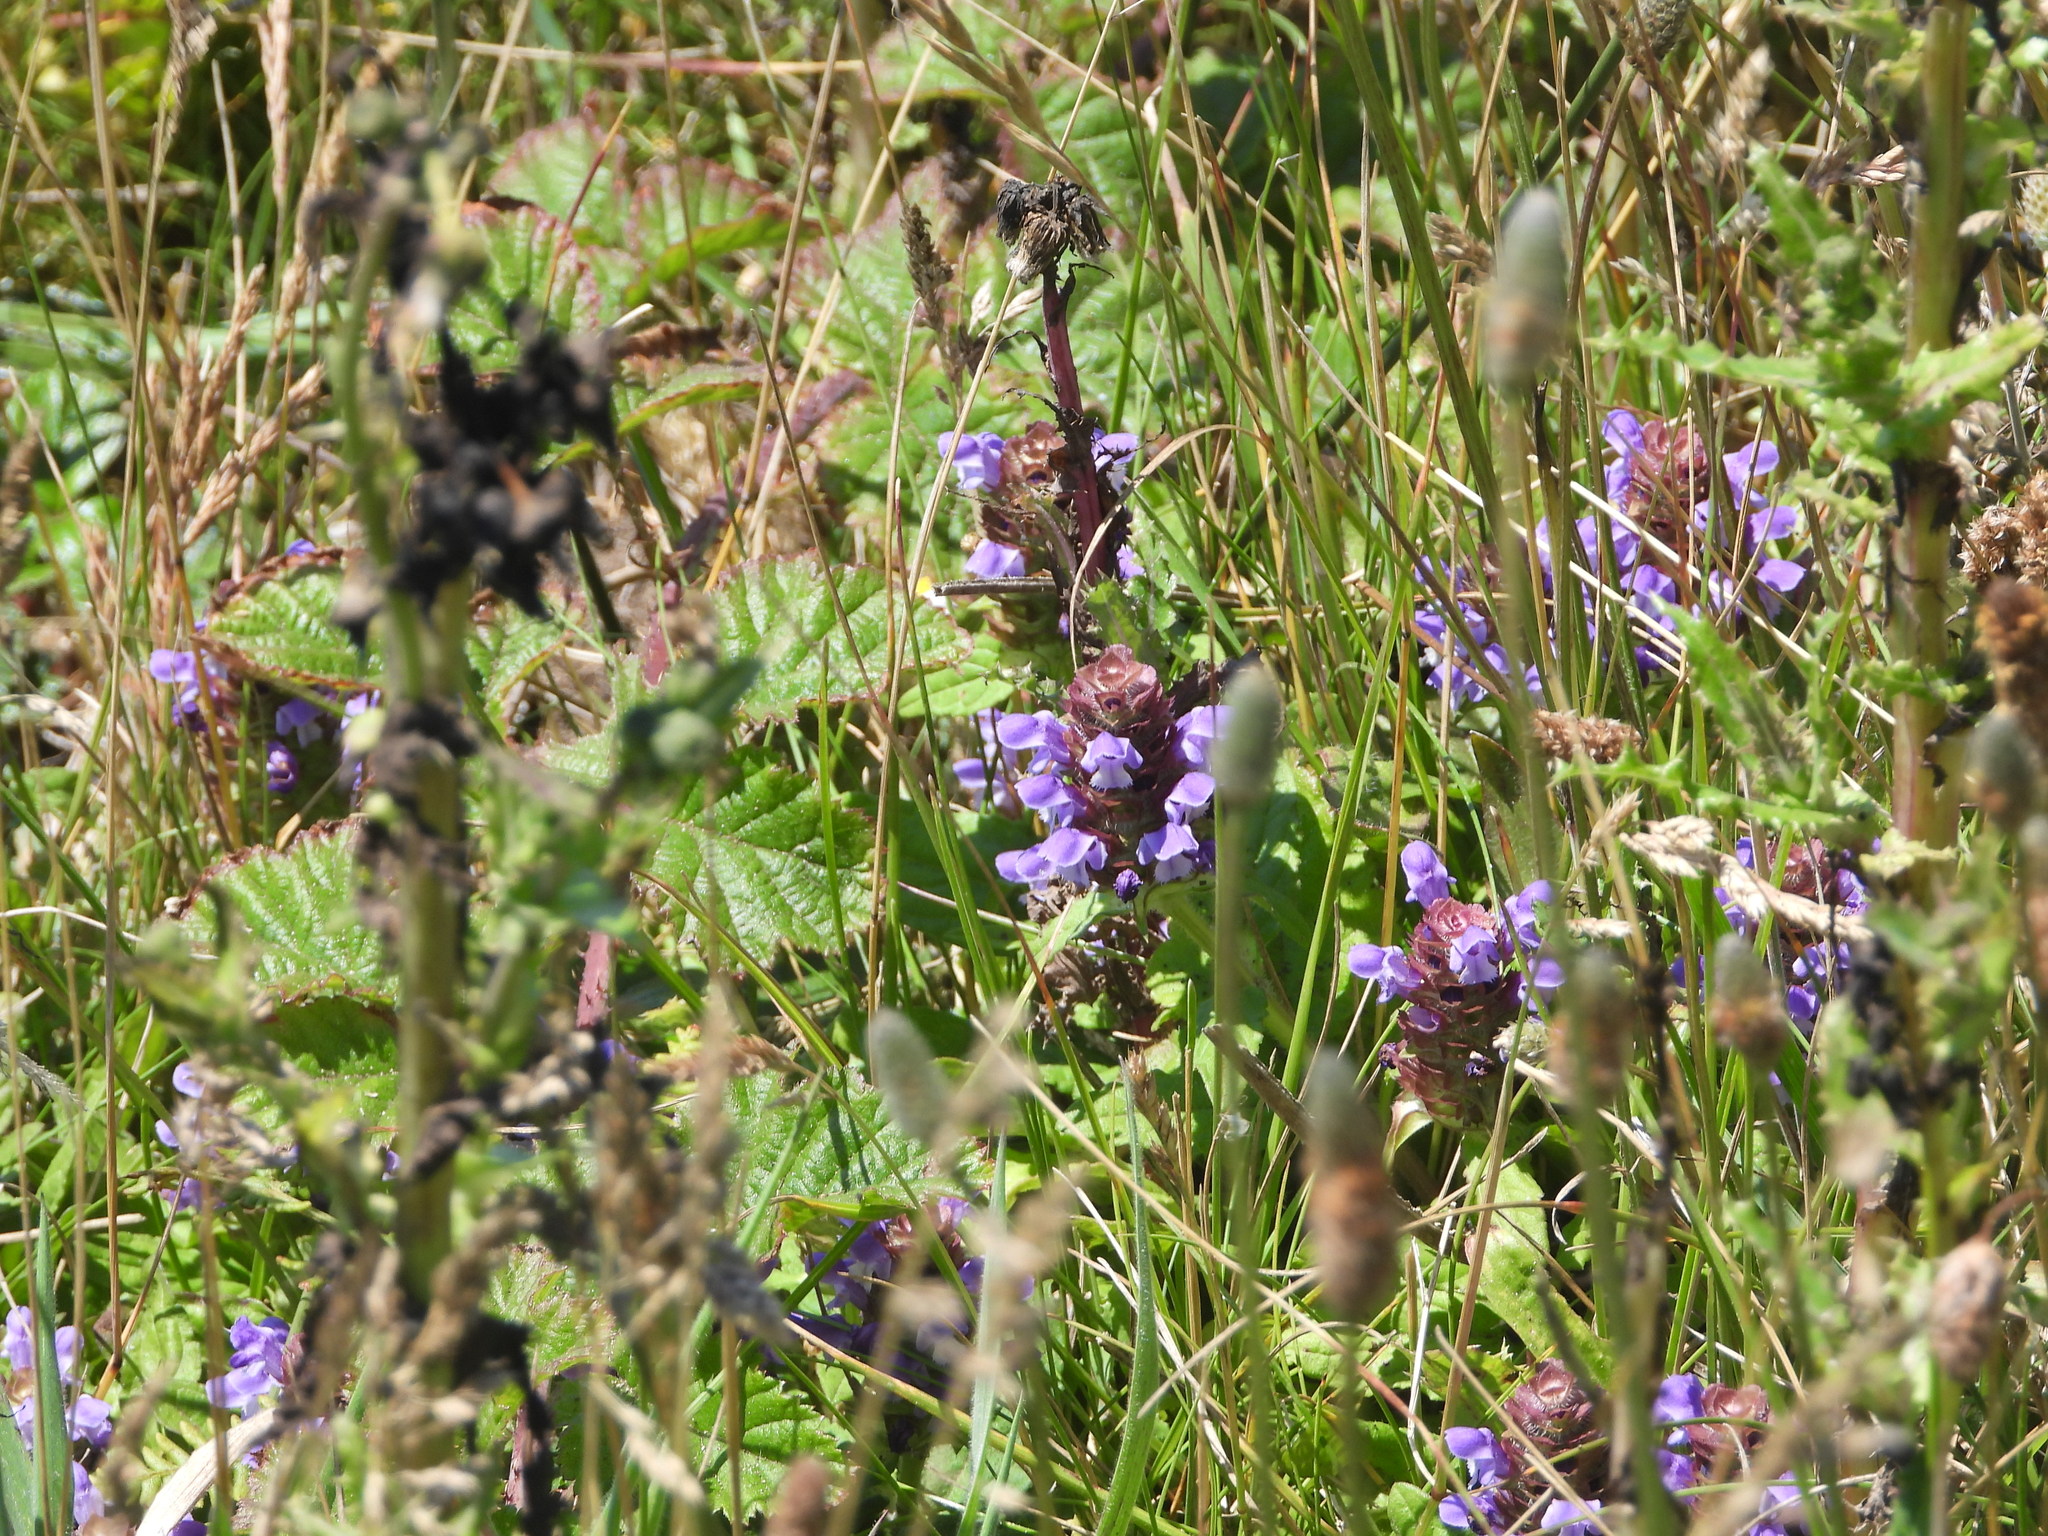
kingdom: Plantae
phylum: Tracheophyta
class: Magnoliopsida
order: Lamiales
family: Lamiaceae
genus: Prunella
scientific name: Prunella vulgaris
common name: Heal-all
